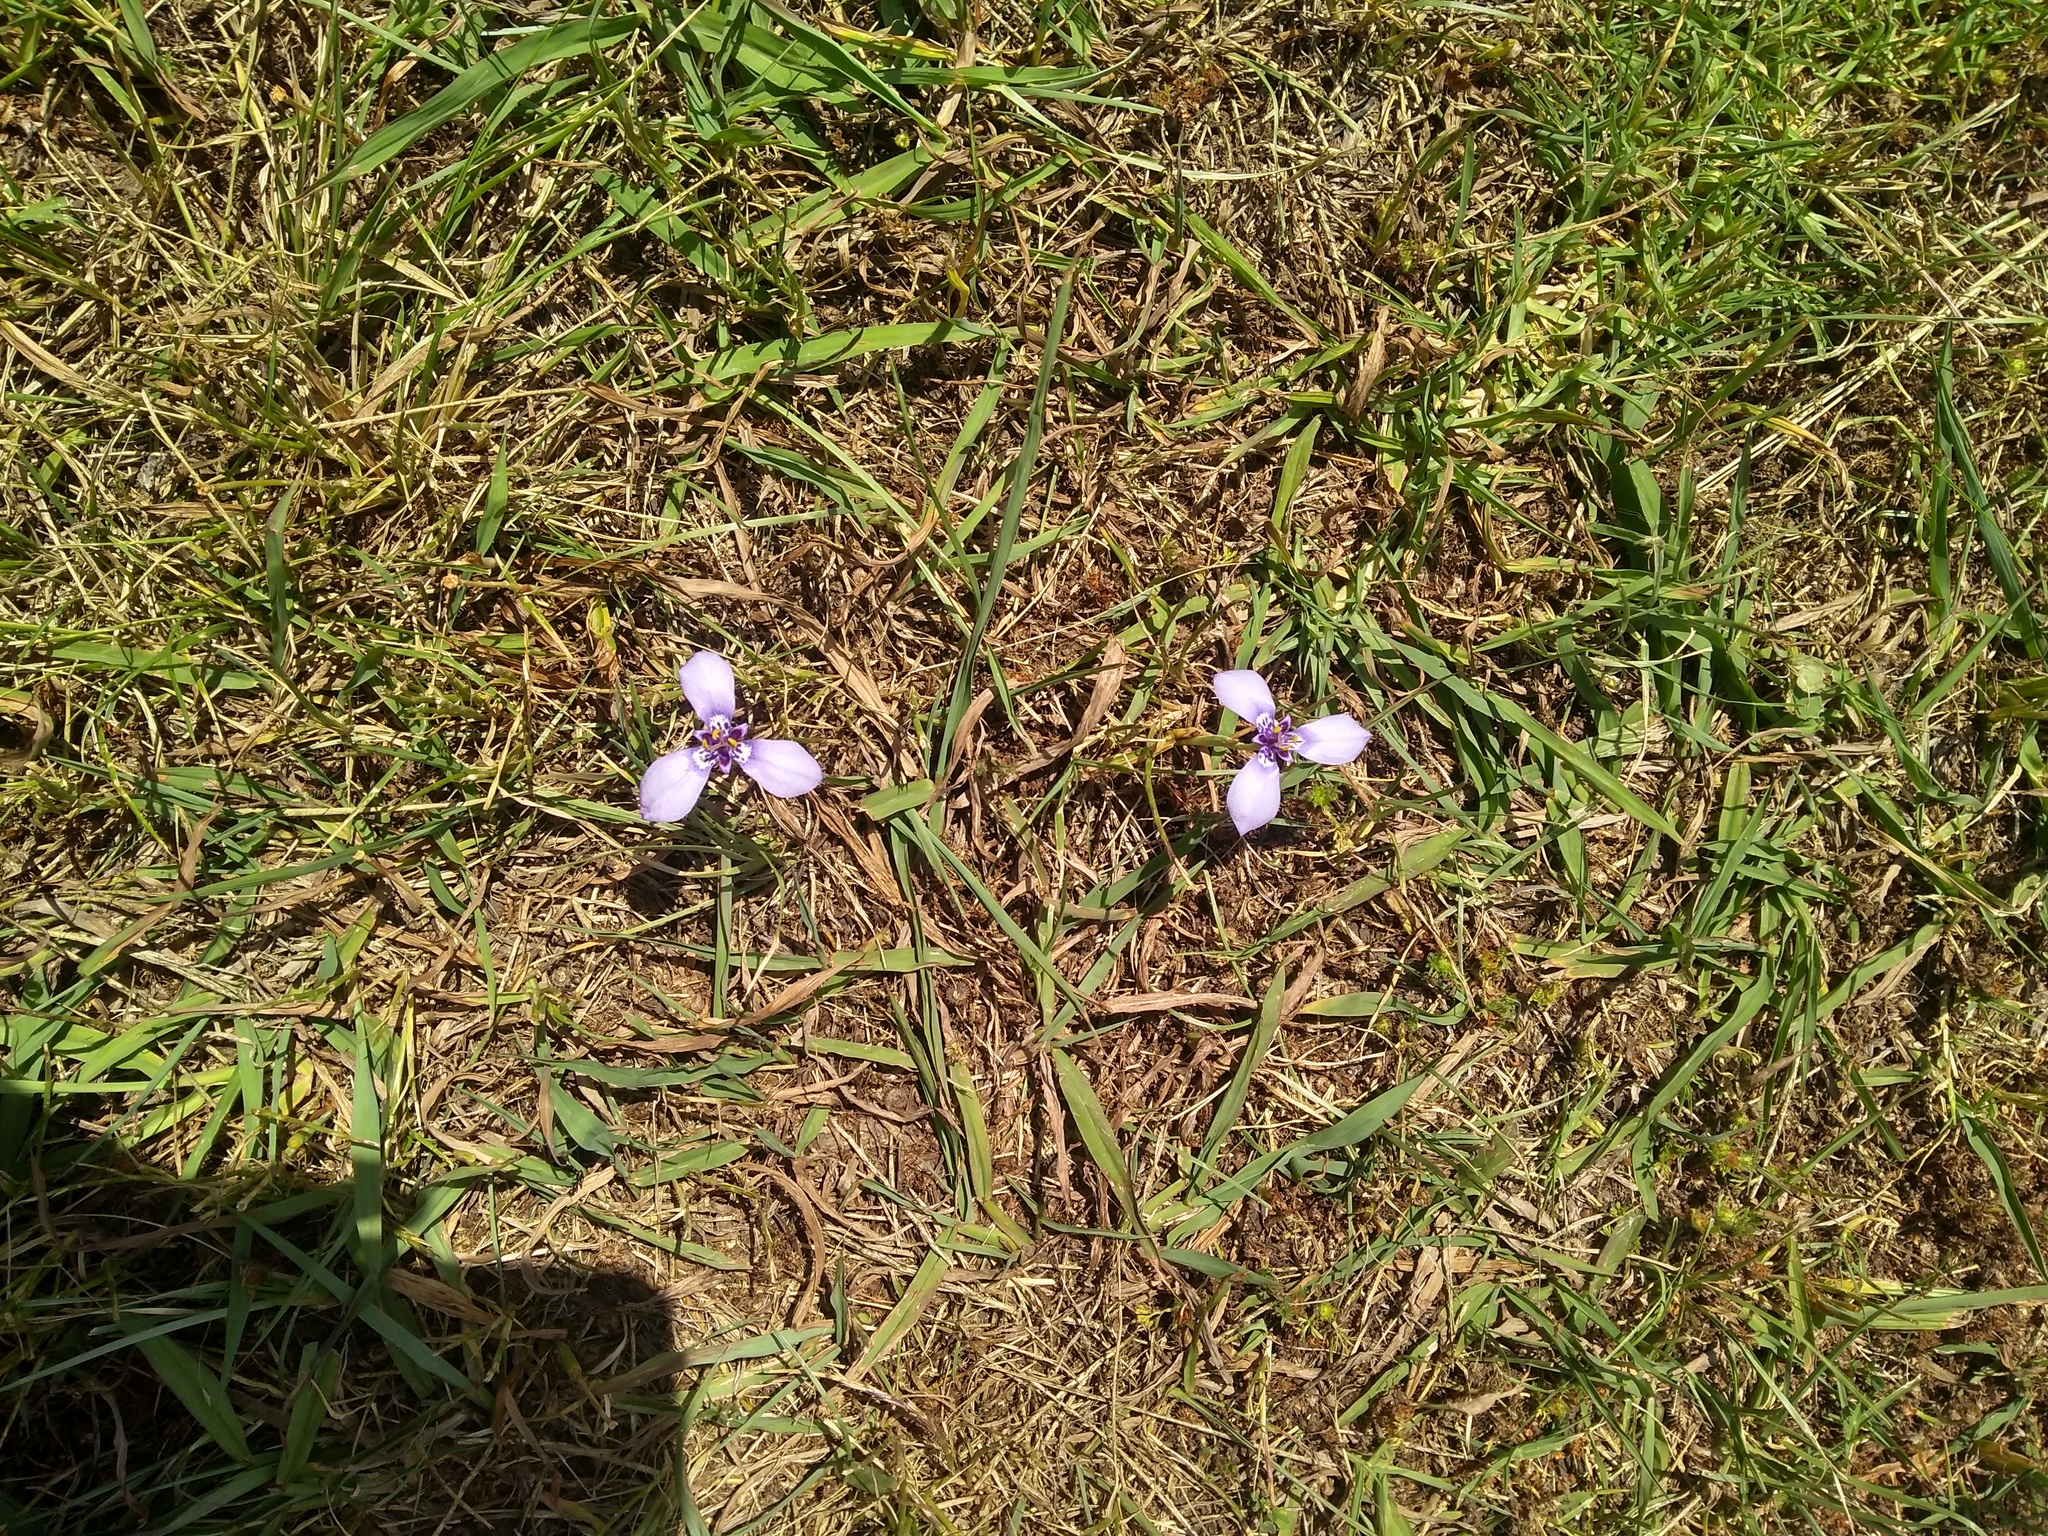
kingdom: Plantae
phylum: Tracheophyta
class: Liliopsida
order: Asparagales
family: Iridaceae
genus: Herbertia
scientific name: Herbertia lahue
